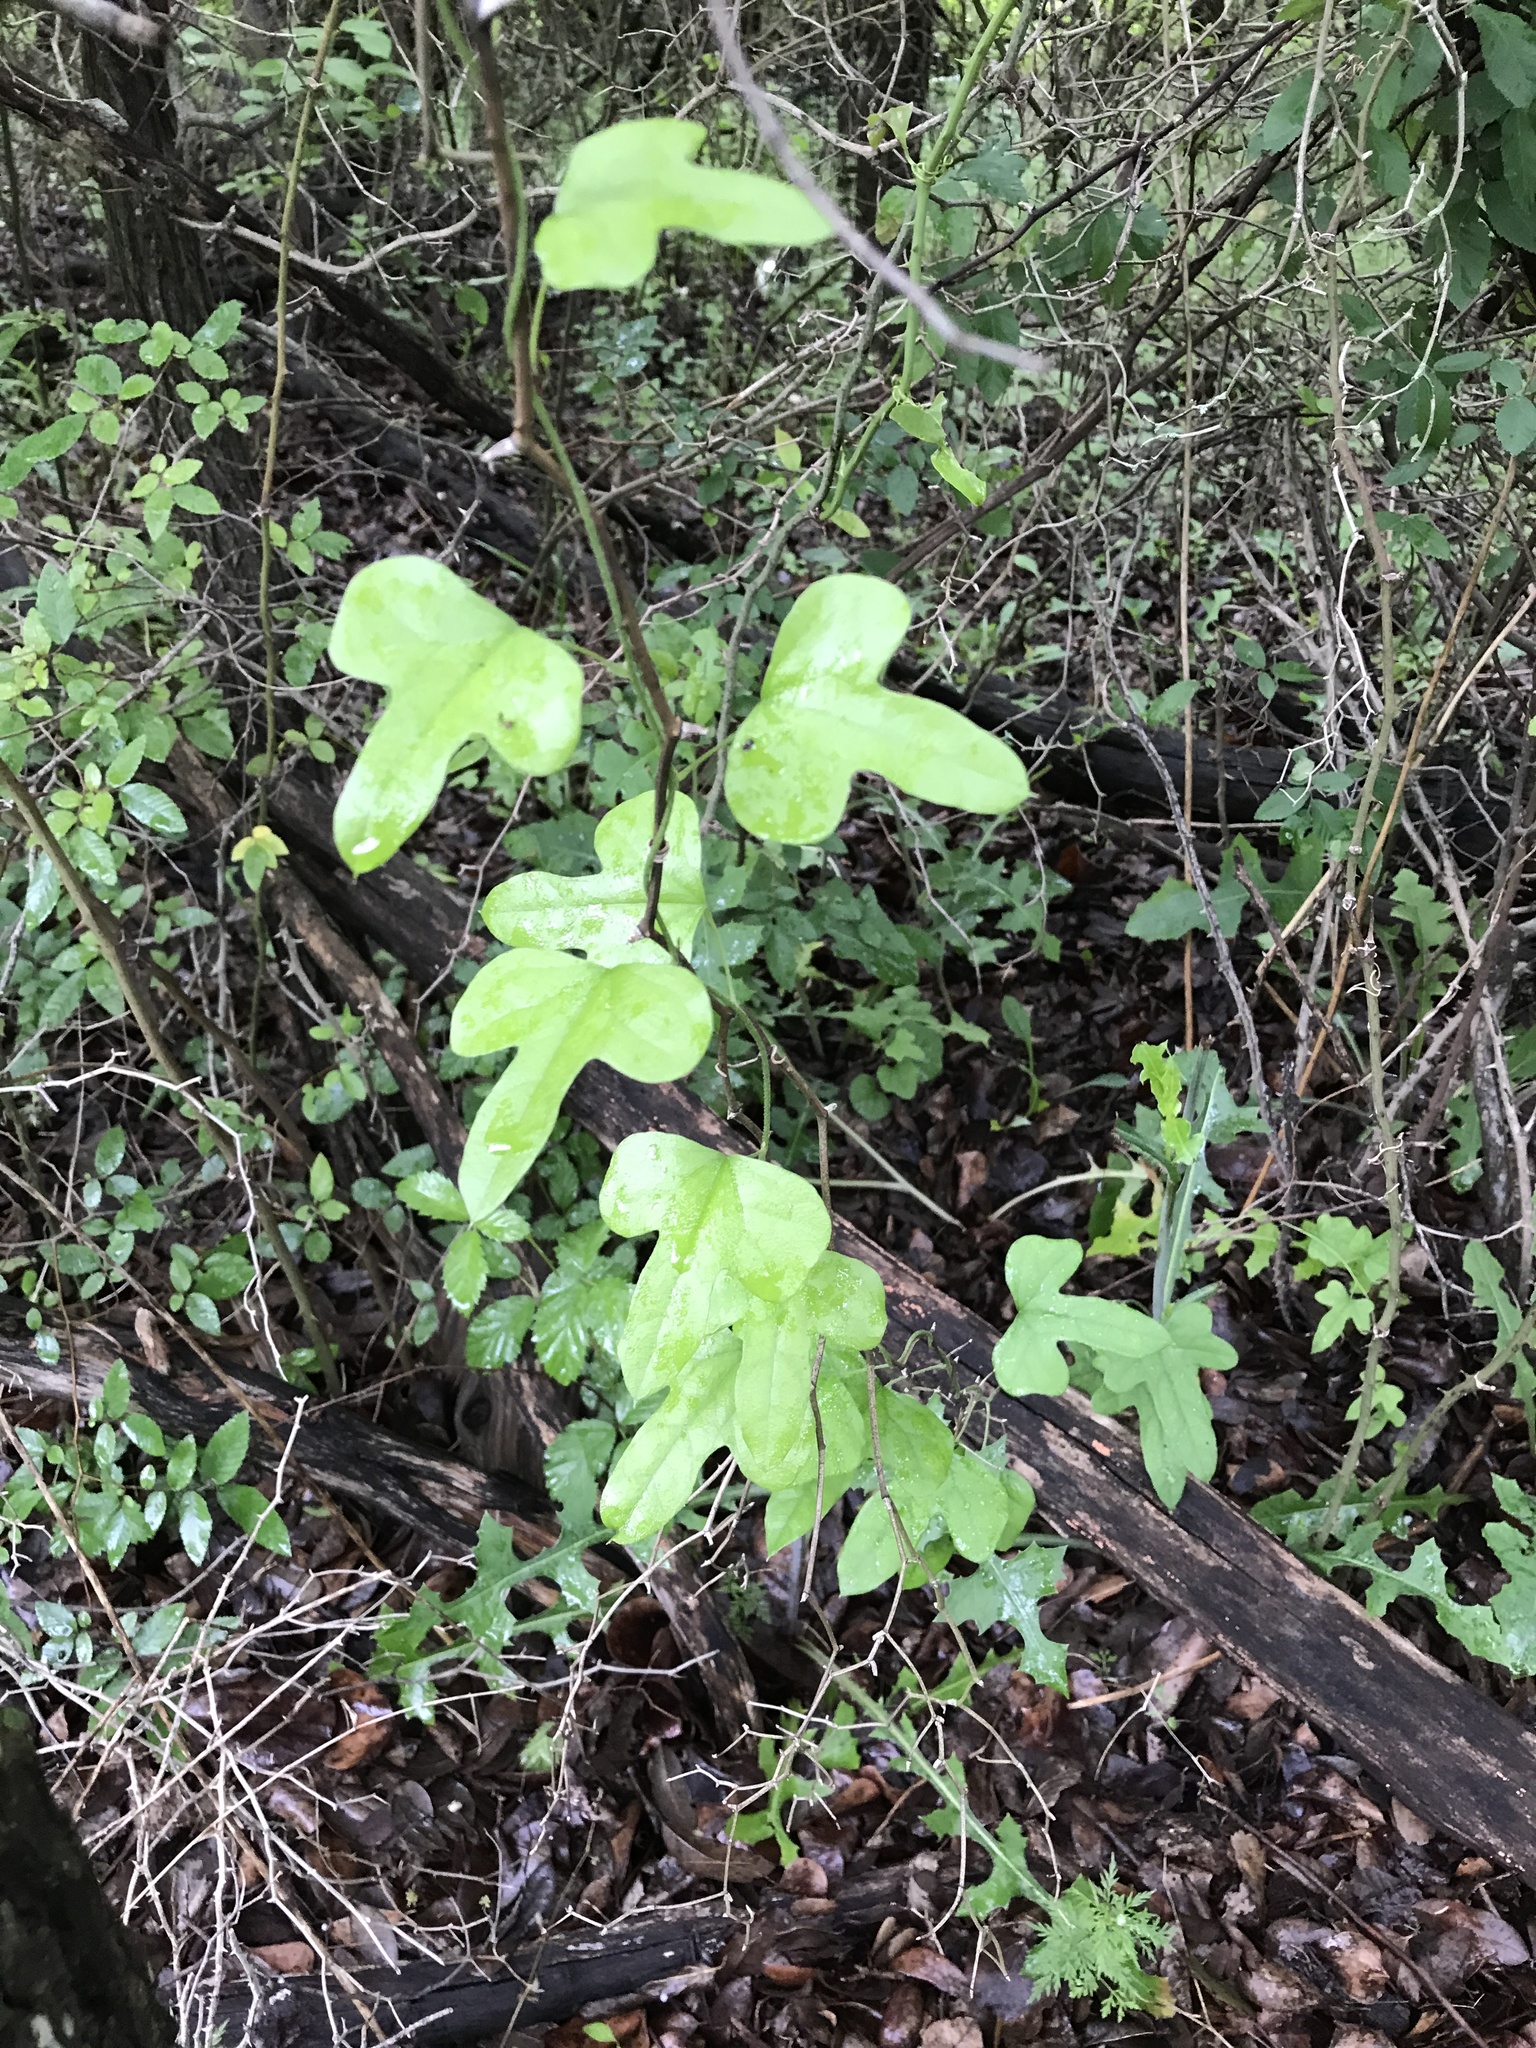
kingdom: Plantae
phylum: Tracheophyta
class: Magnoliopsida
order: Ranunculales
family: Menispermaceae
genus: Cocculus
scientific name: Cocculus carolinus
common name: Carolina moonseed
